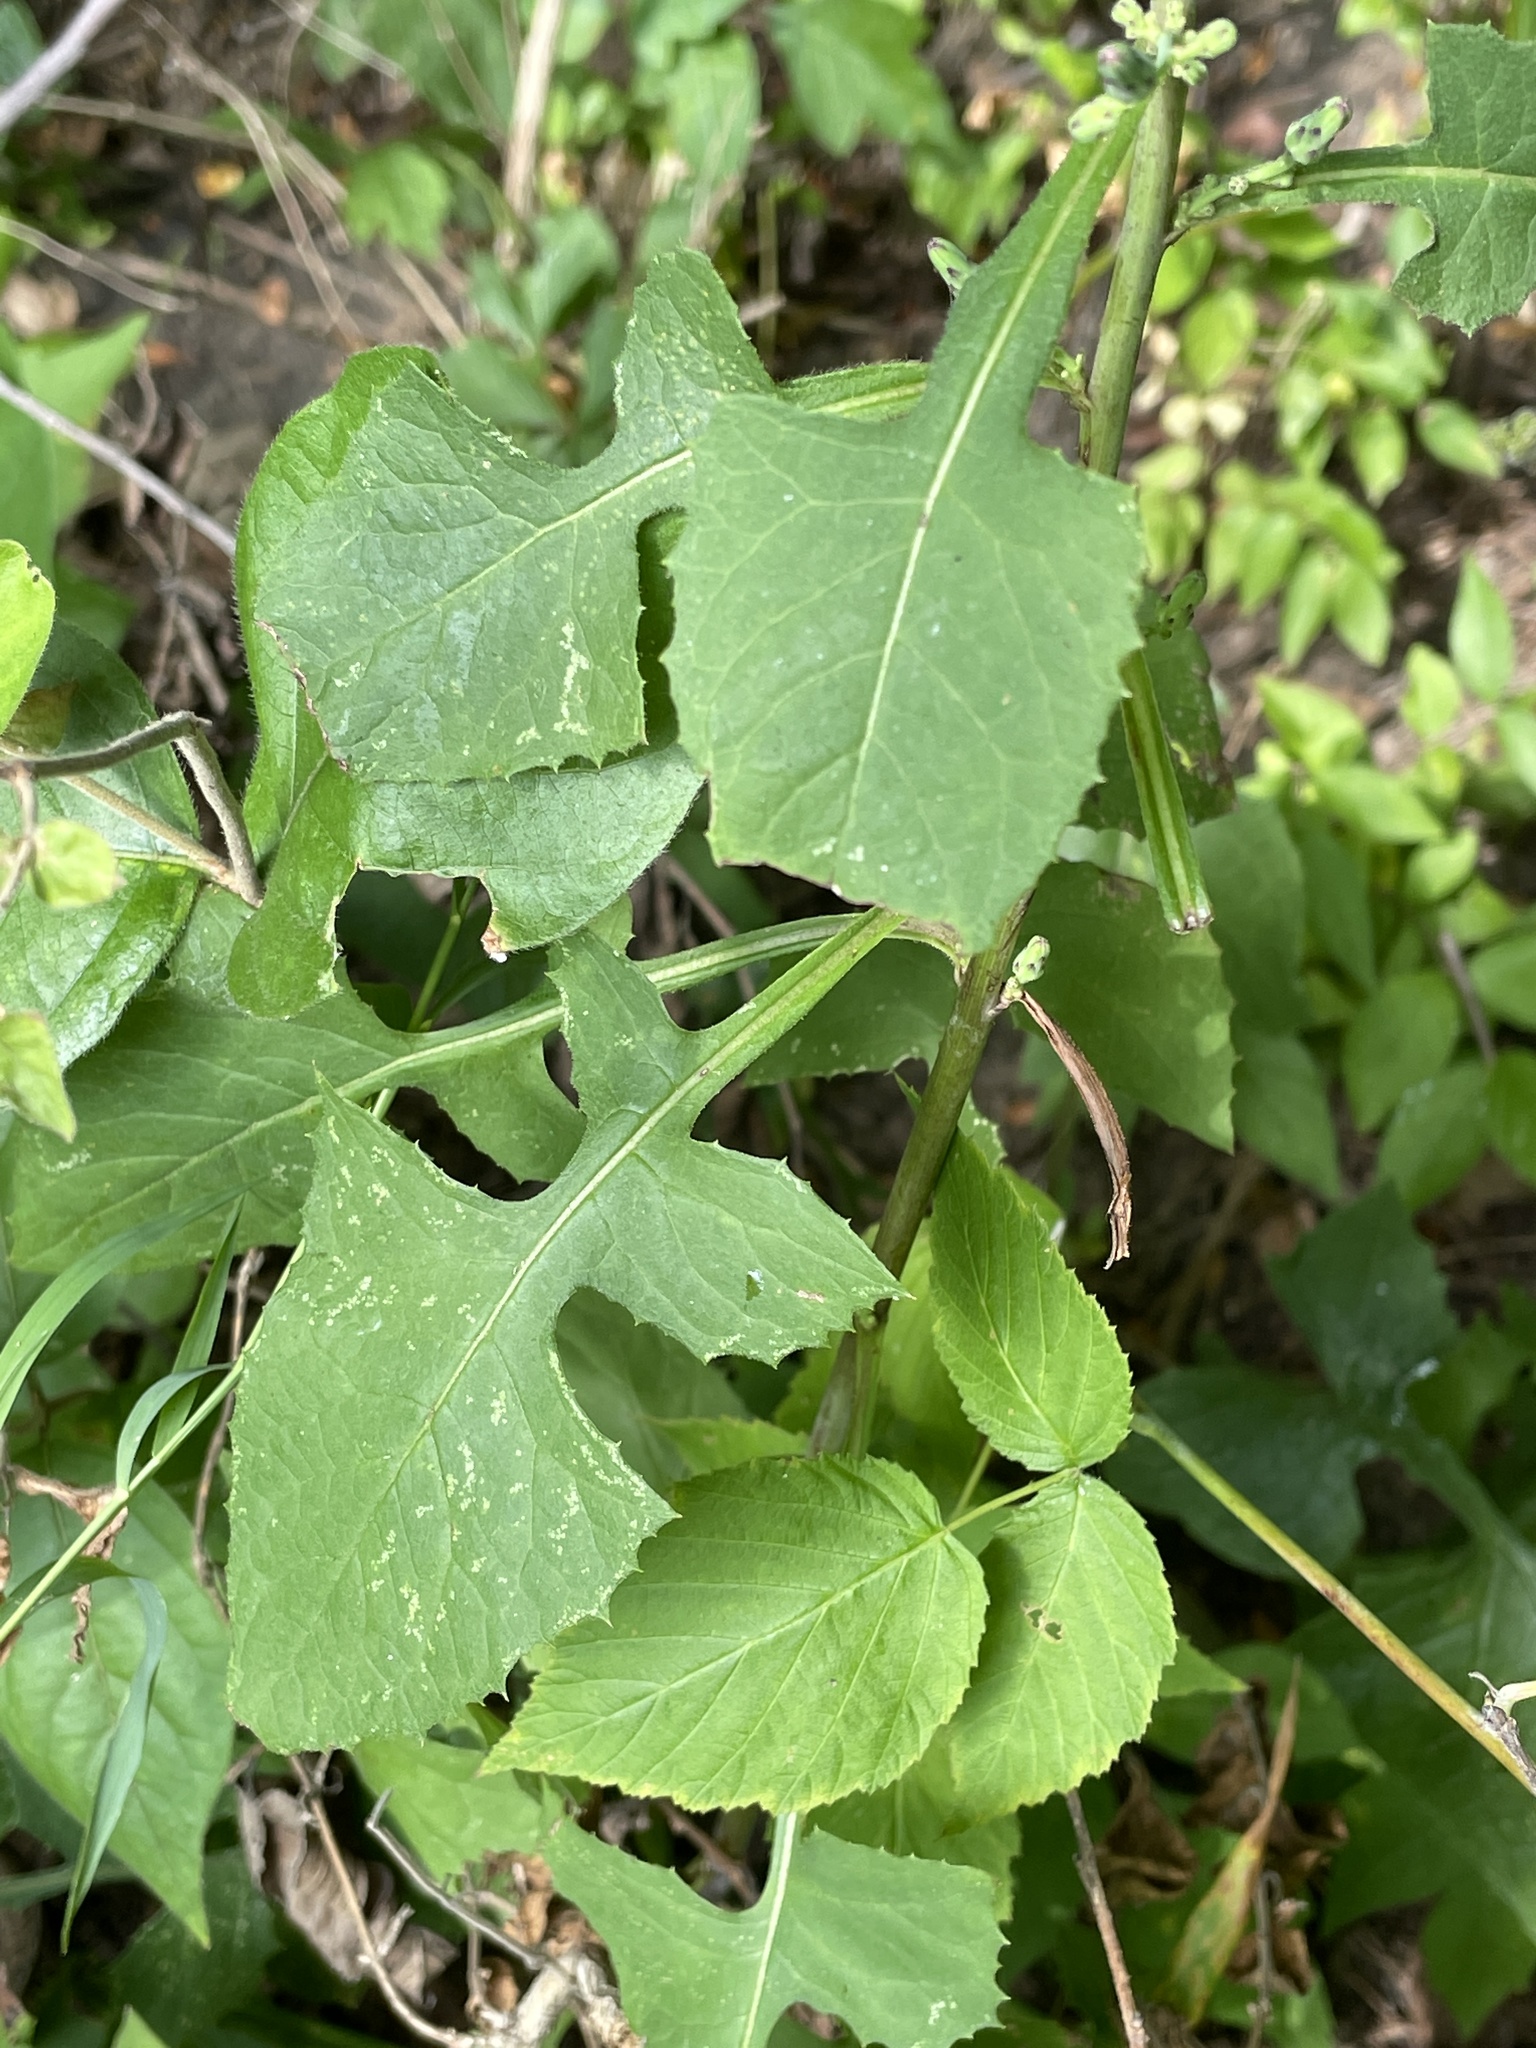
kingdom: Plantae
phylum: Tracheophyta
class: Magnoliopsida
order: Asterales
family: Asteraceae
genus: Lactuca
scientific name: Lactuca floridana
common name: Woodland lettuce
